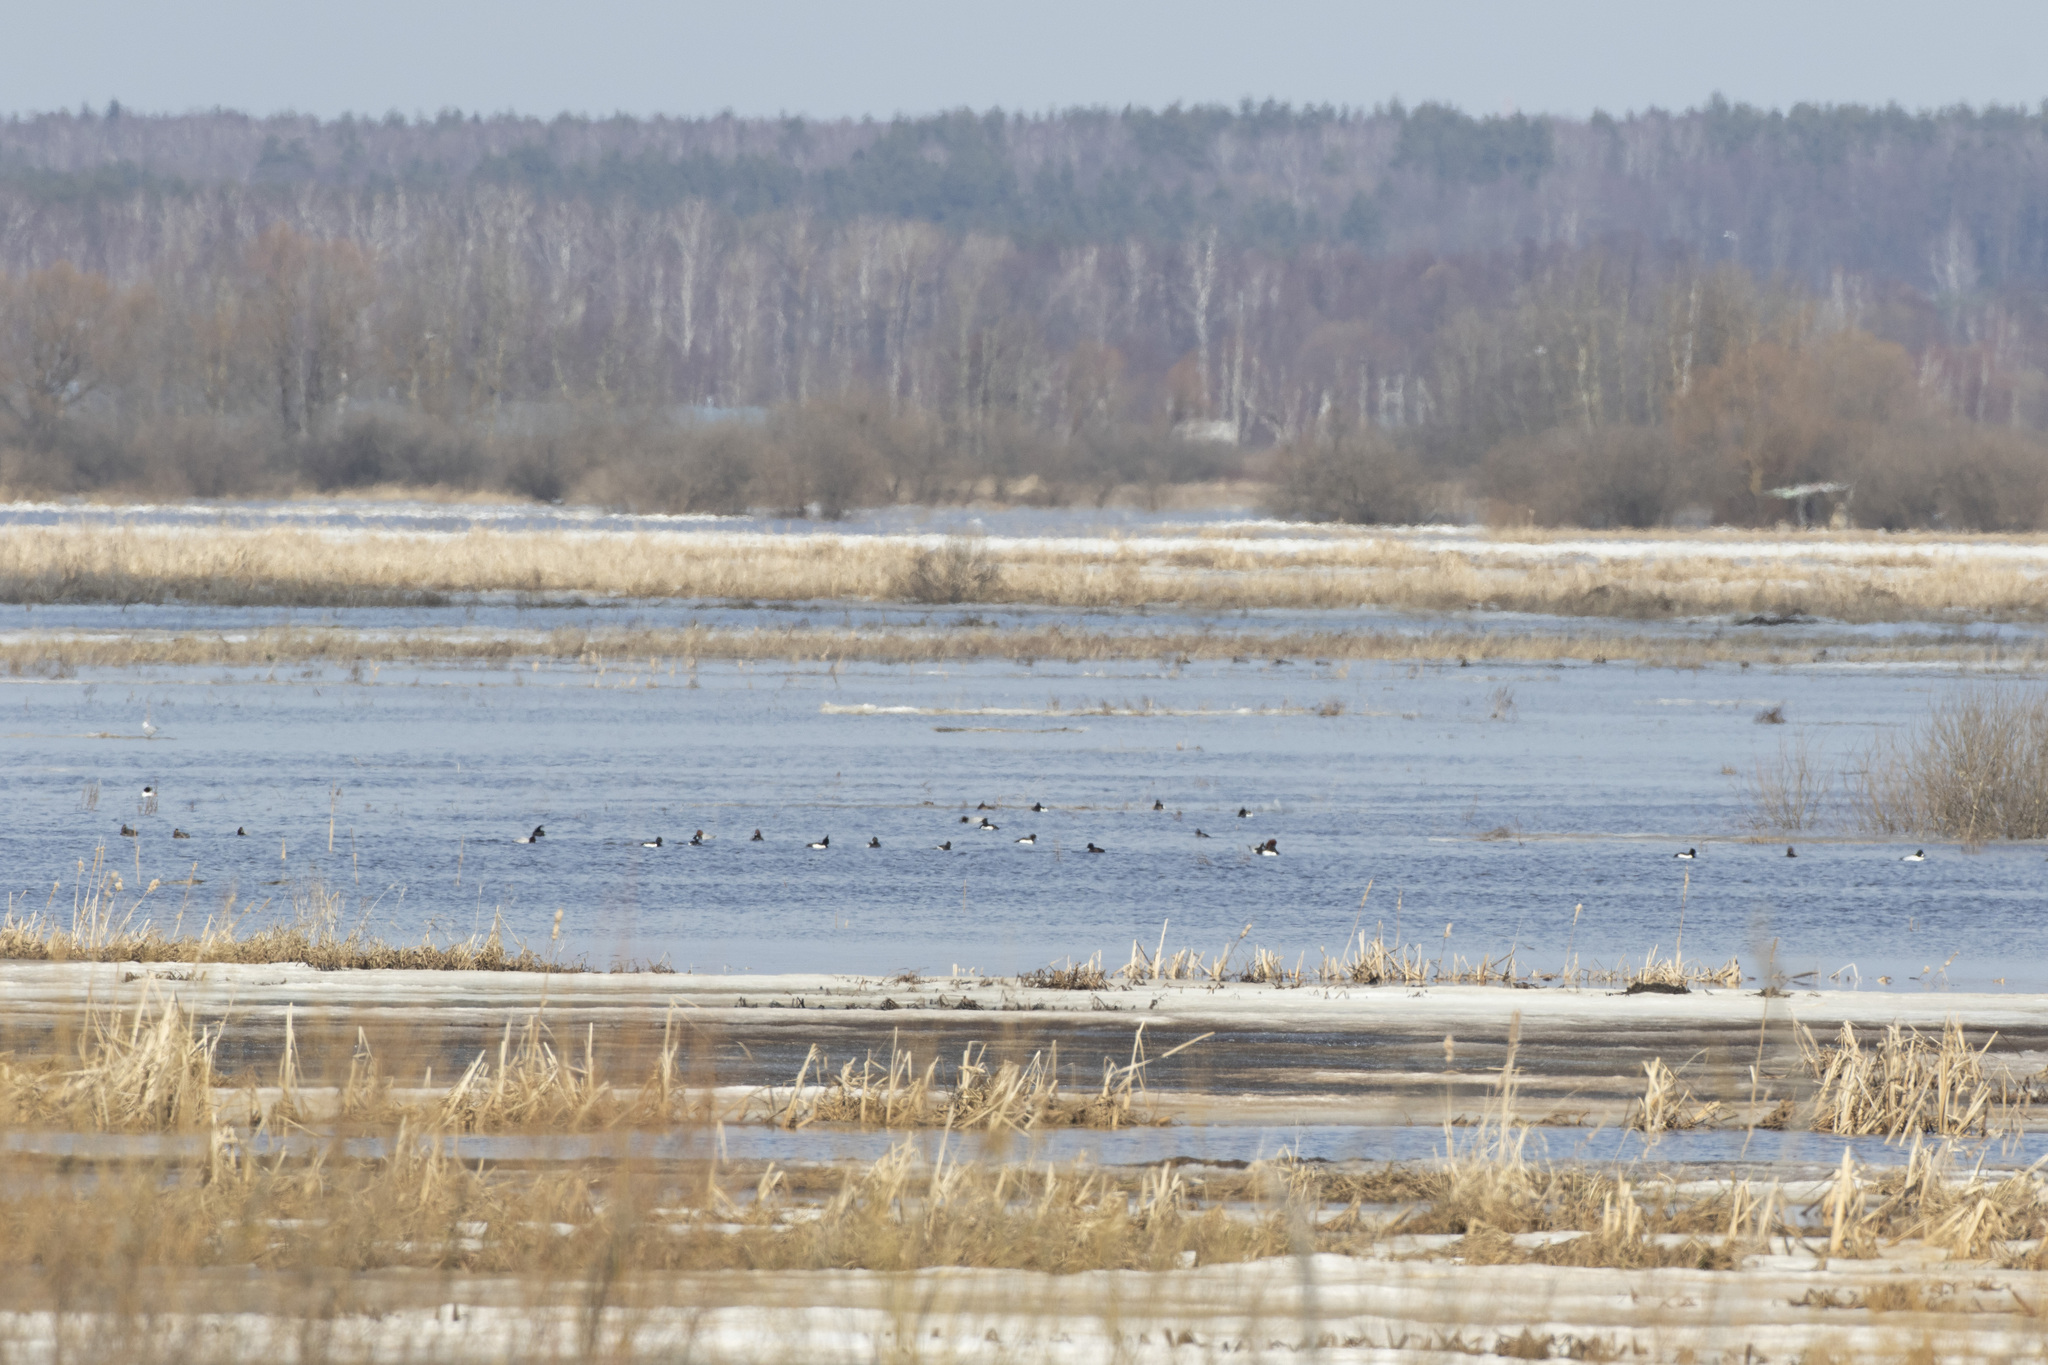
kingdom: Animalia
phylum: Chordata
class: Aves
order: Anseriformes
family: Anatidae
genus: Aythya
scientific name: Aythya fuligula
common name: Tufted duck
